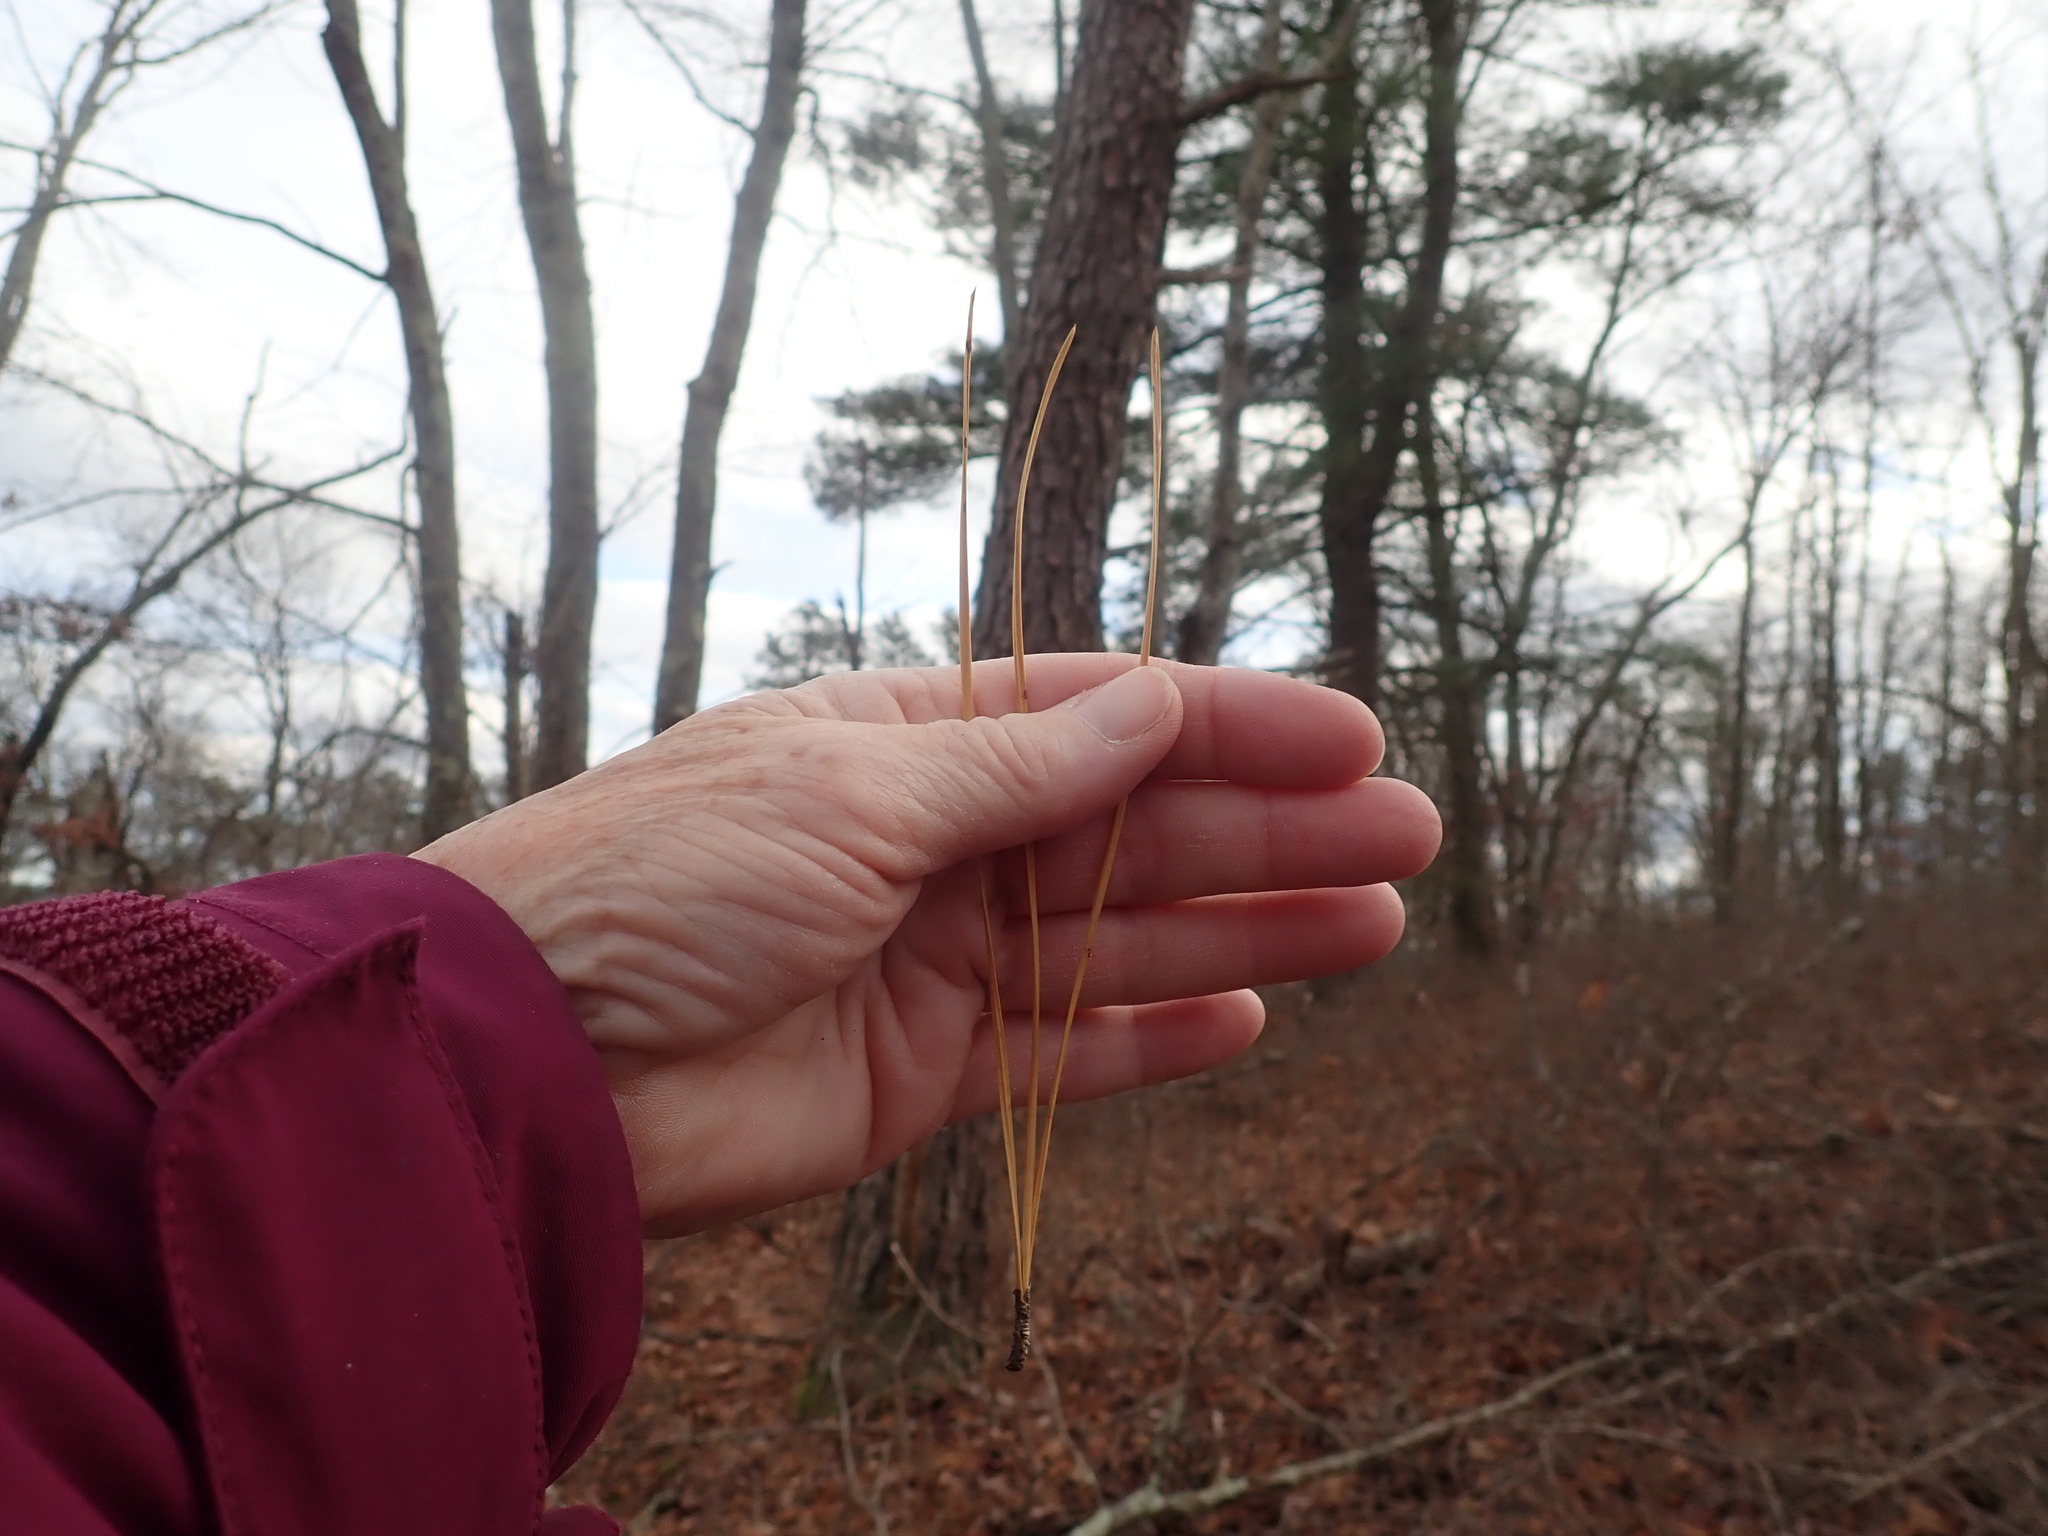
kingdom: Plantae
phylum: Tracheophyta
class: Pinopsida
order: Pinales
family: Pinaceae
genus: Pinus
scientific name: Pinus rigida
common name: Pitch pine
